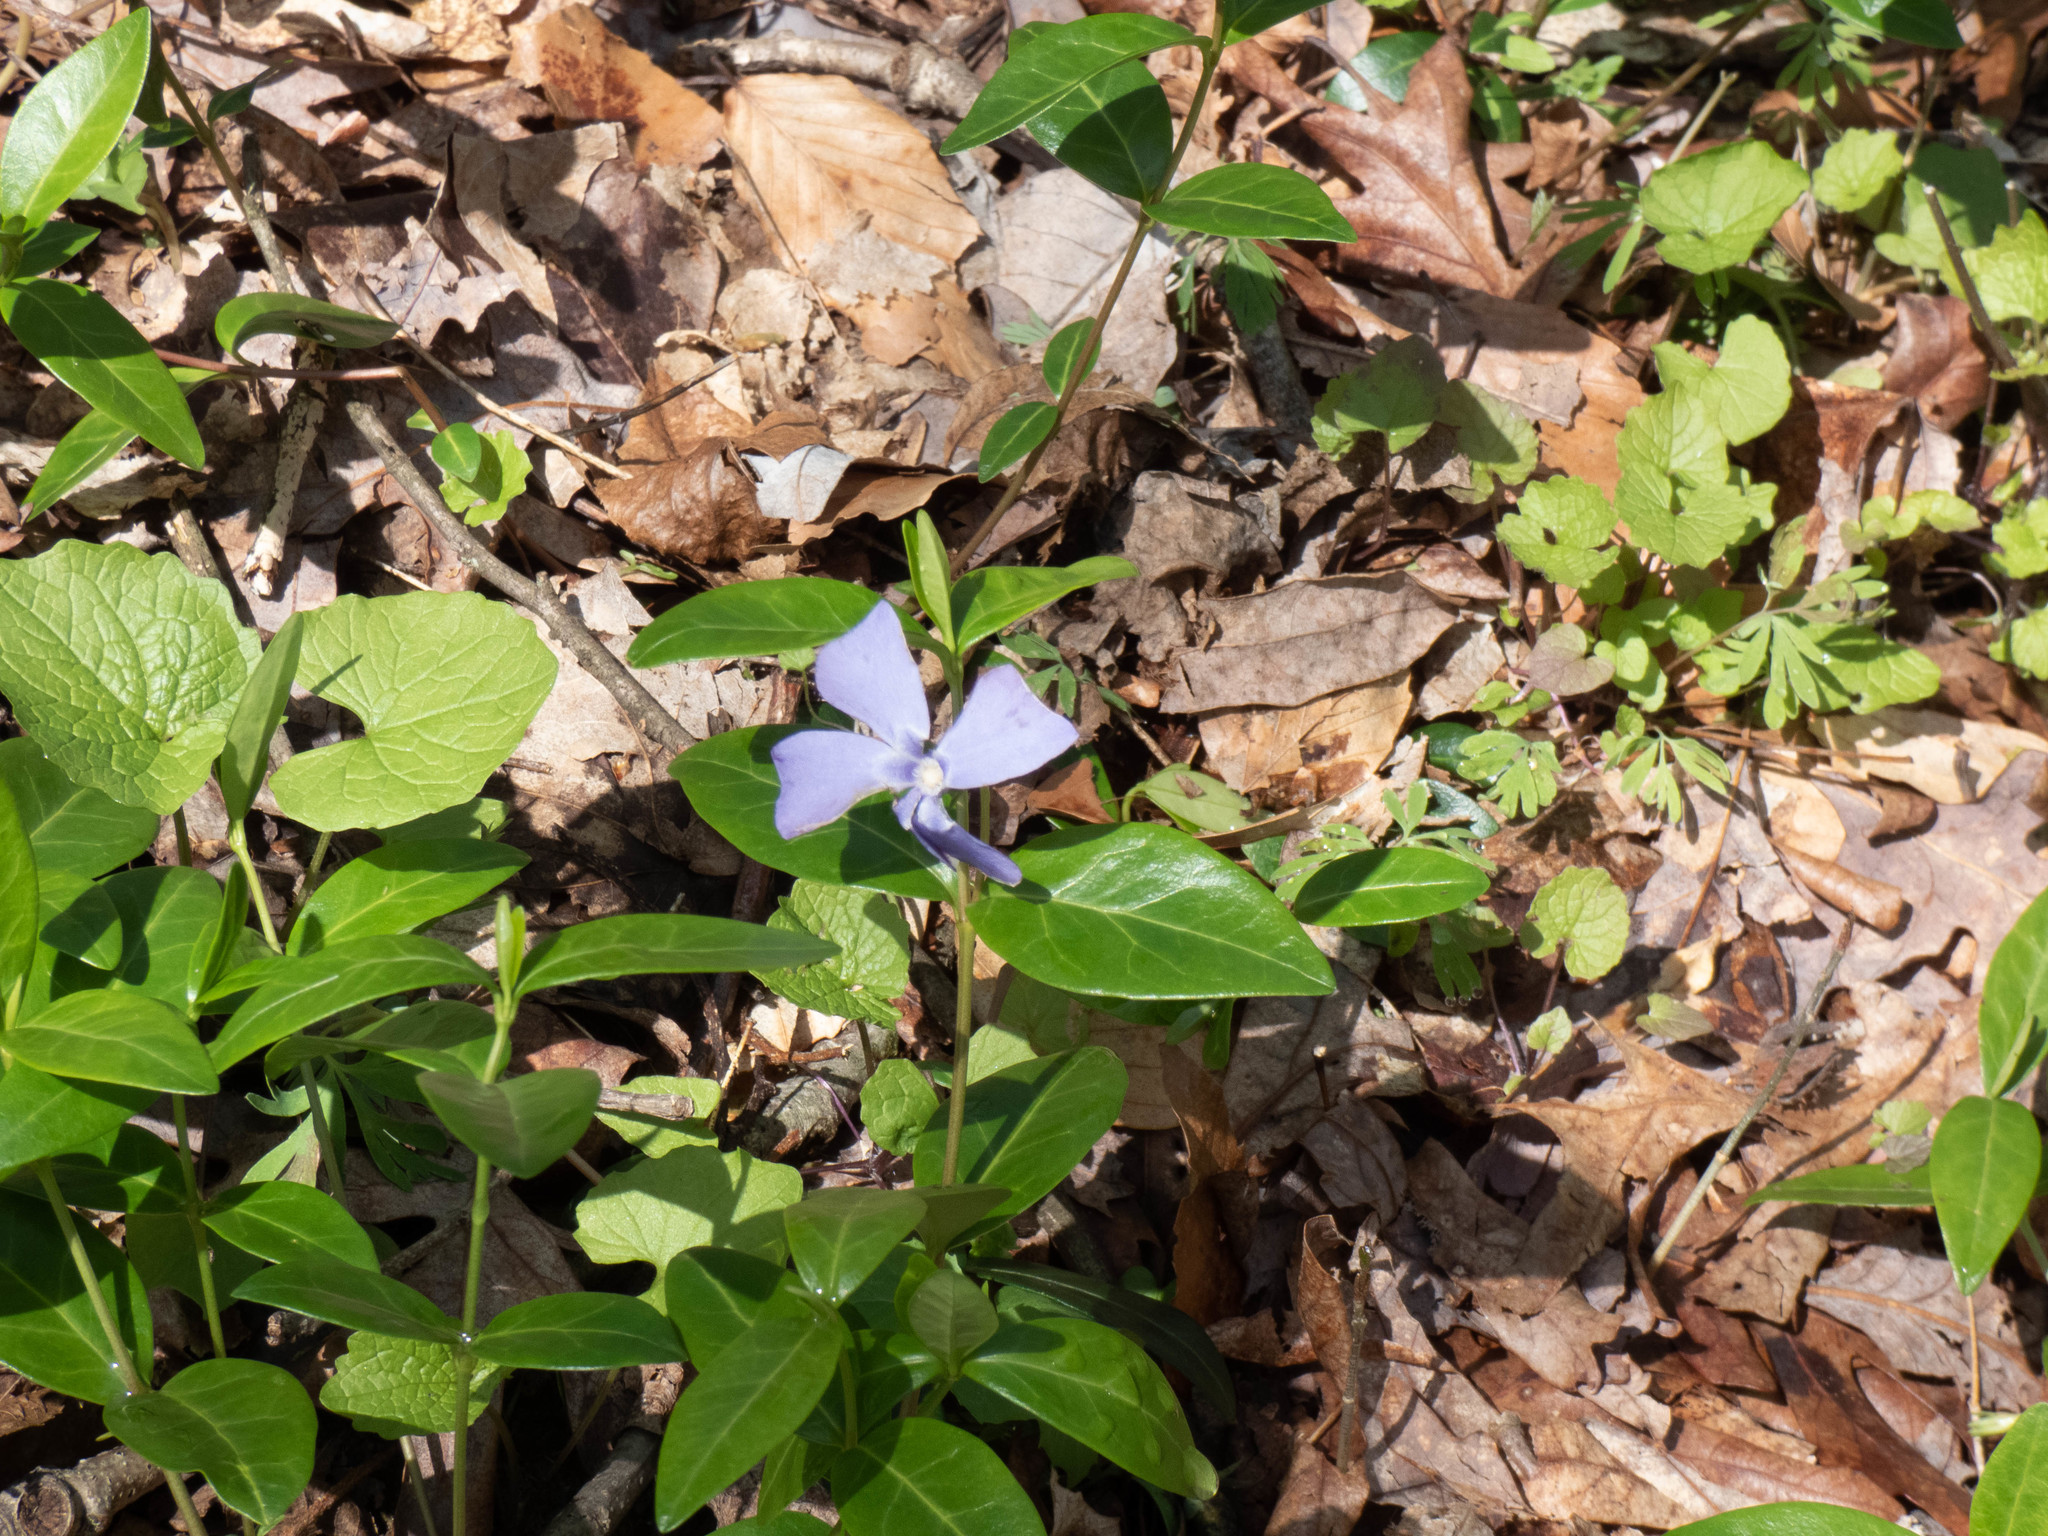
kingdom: Plantae
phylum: Tracheophyta
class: Magnoliopsida
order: Gentianales
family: Apocynaceae
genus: Vinca
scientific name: Vinca minor
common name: Lesser periwinkle
